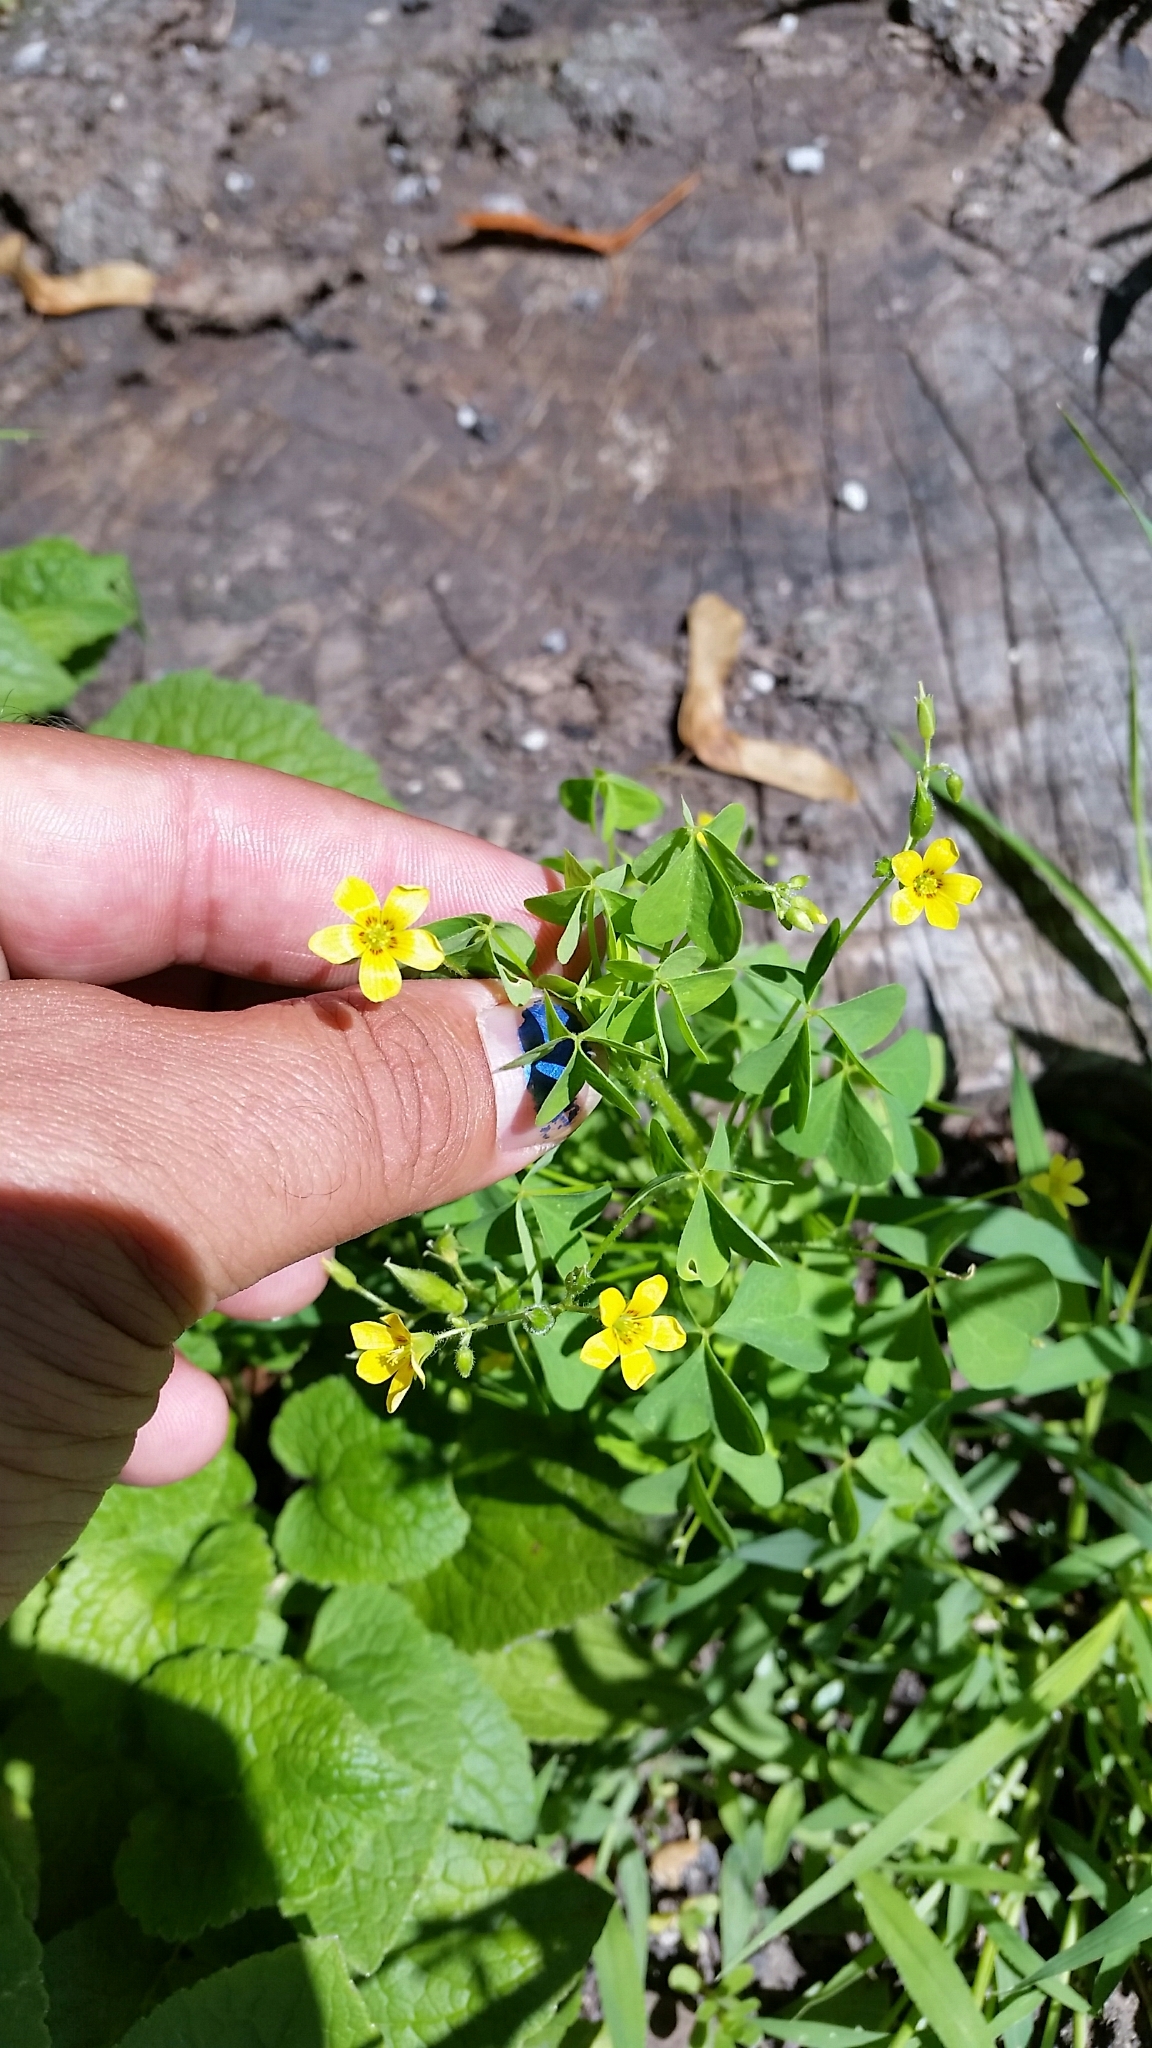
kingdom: Plantae
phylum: Tracheophyta
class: Magnoliopsida
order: Oxalidales
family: Oxalidaceae
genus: Oxalis
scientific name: Oxalis stricta
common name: Upright yellow-sorrel
